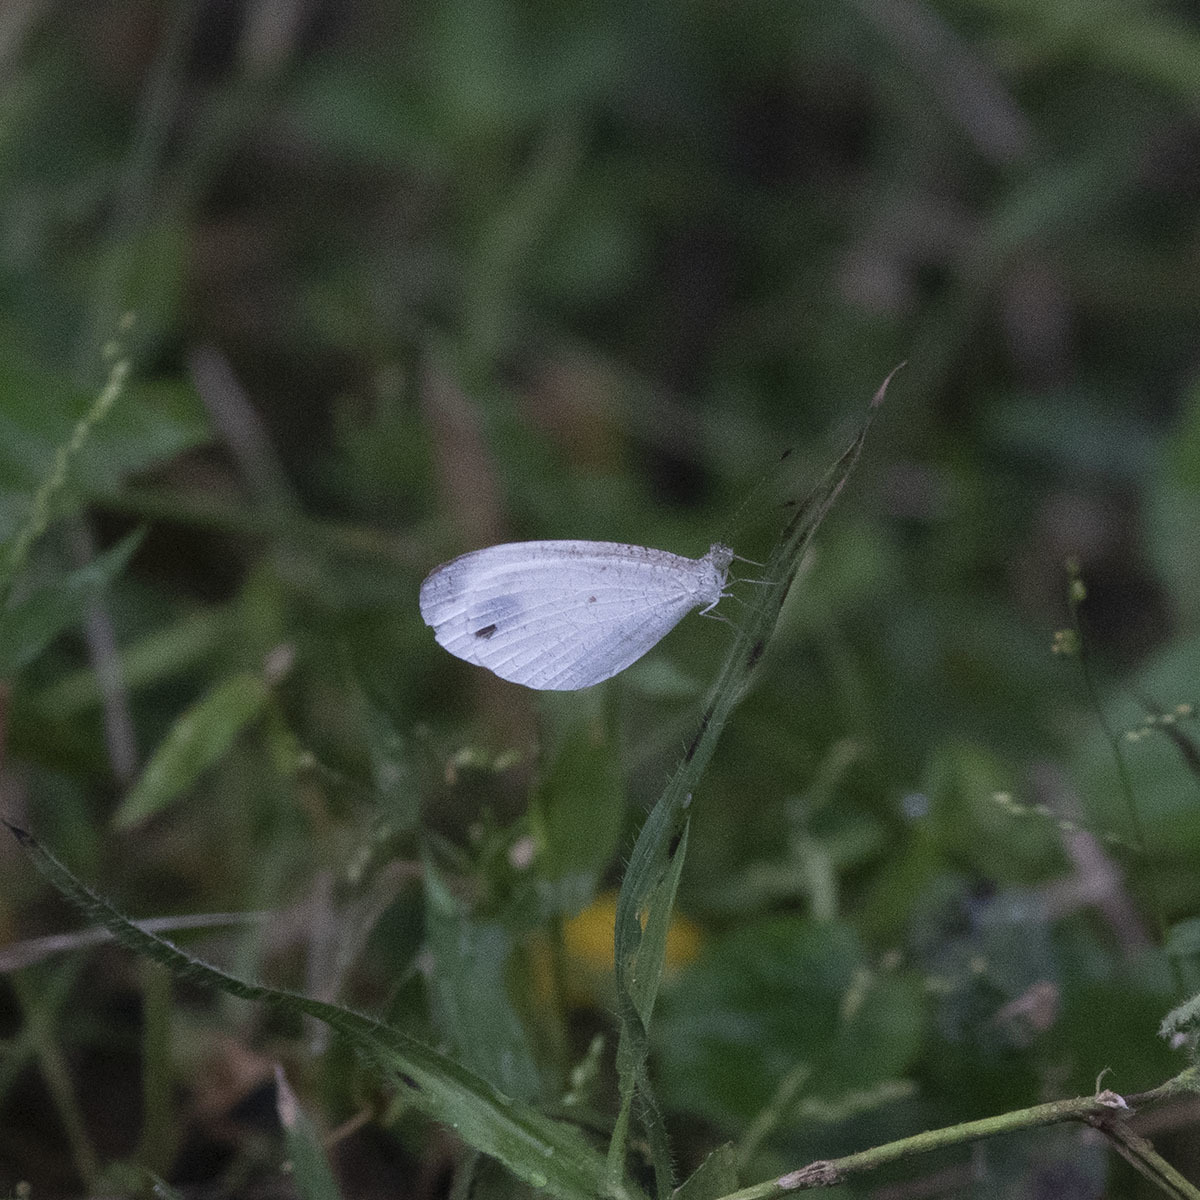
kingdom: Animalia
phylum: Arthropoda
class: Insecta
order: Lepidoptera
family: Pieridae
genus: Leptosia
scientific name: Leptosia nina
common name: Psyche
